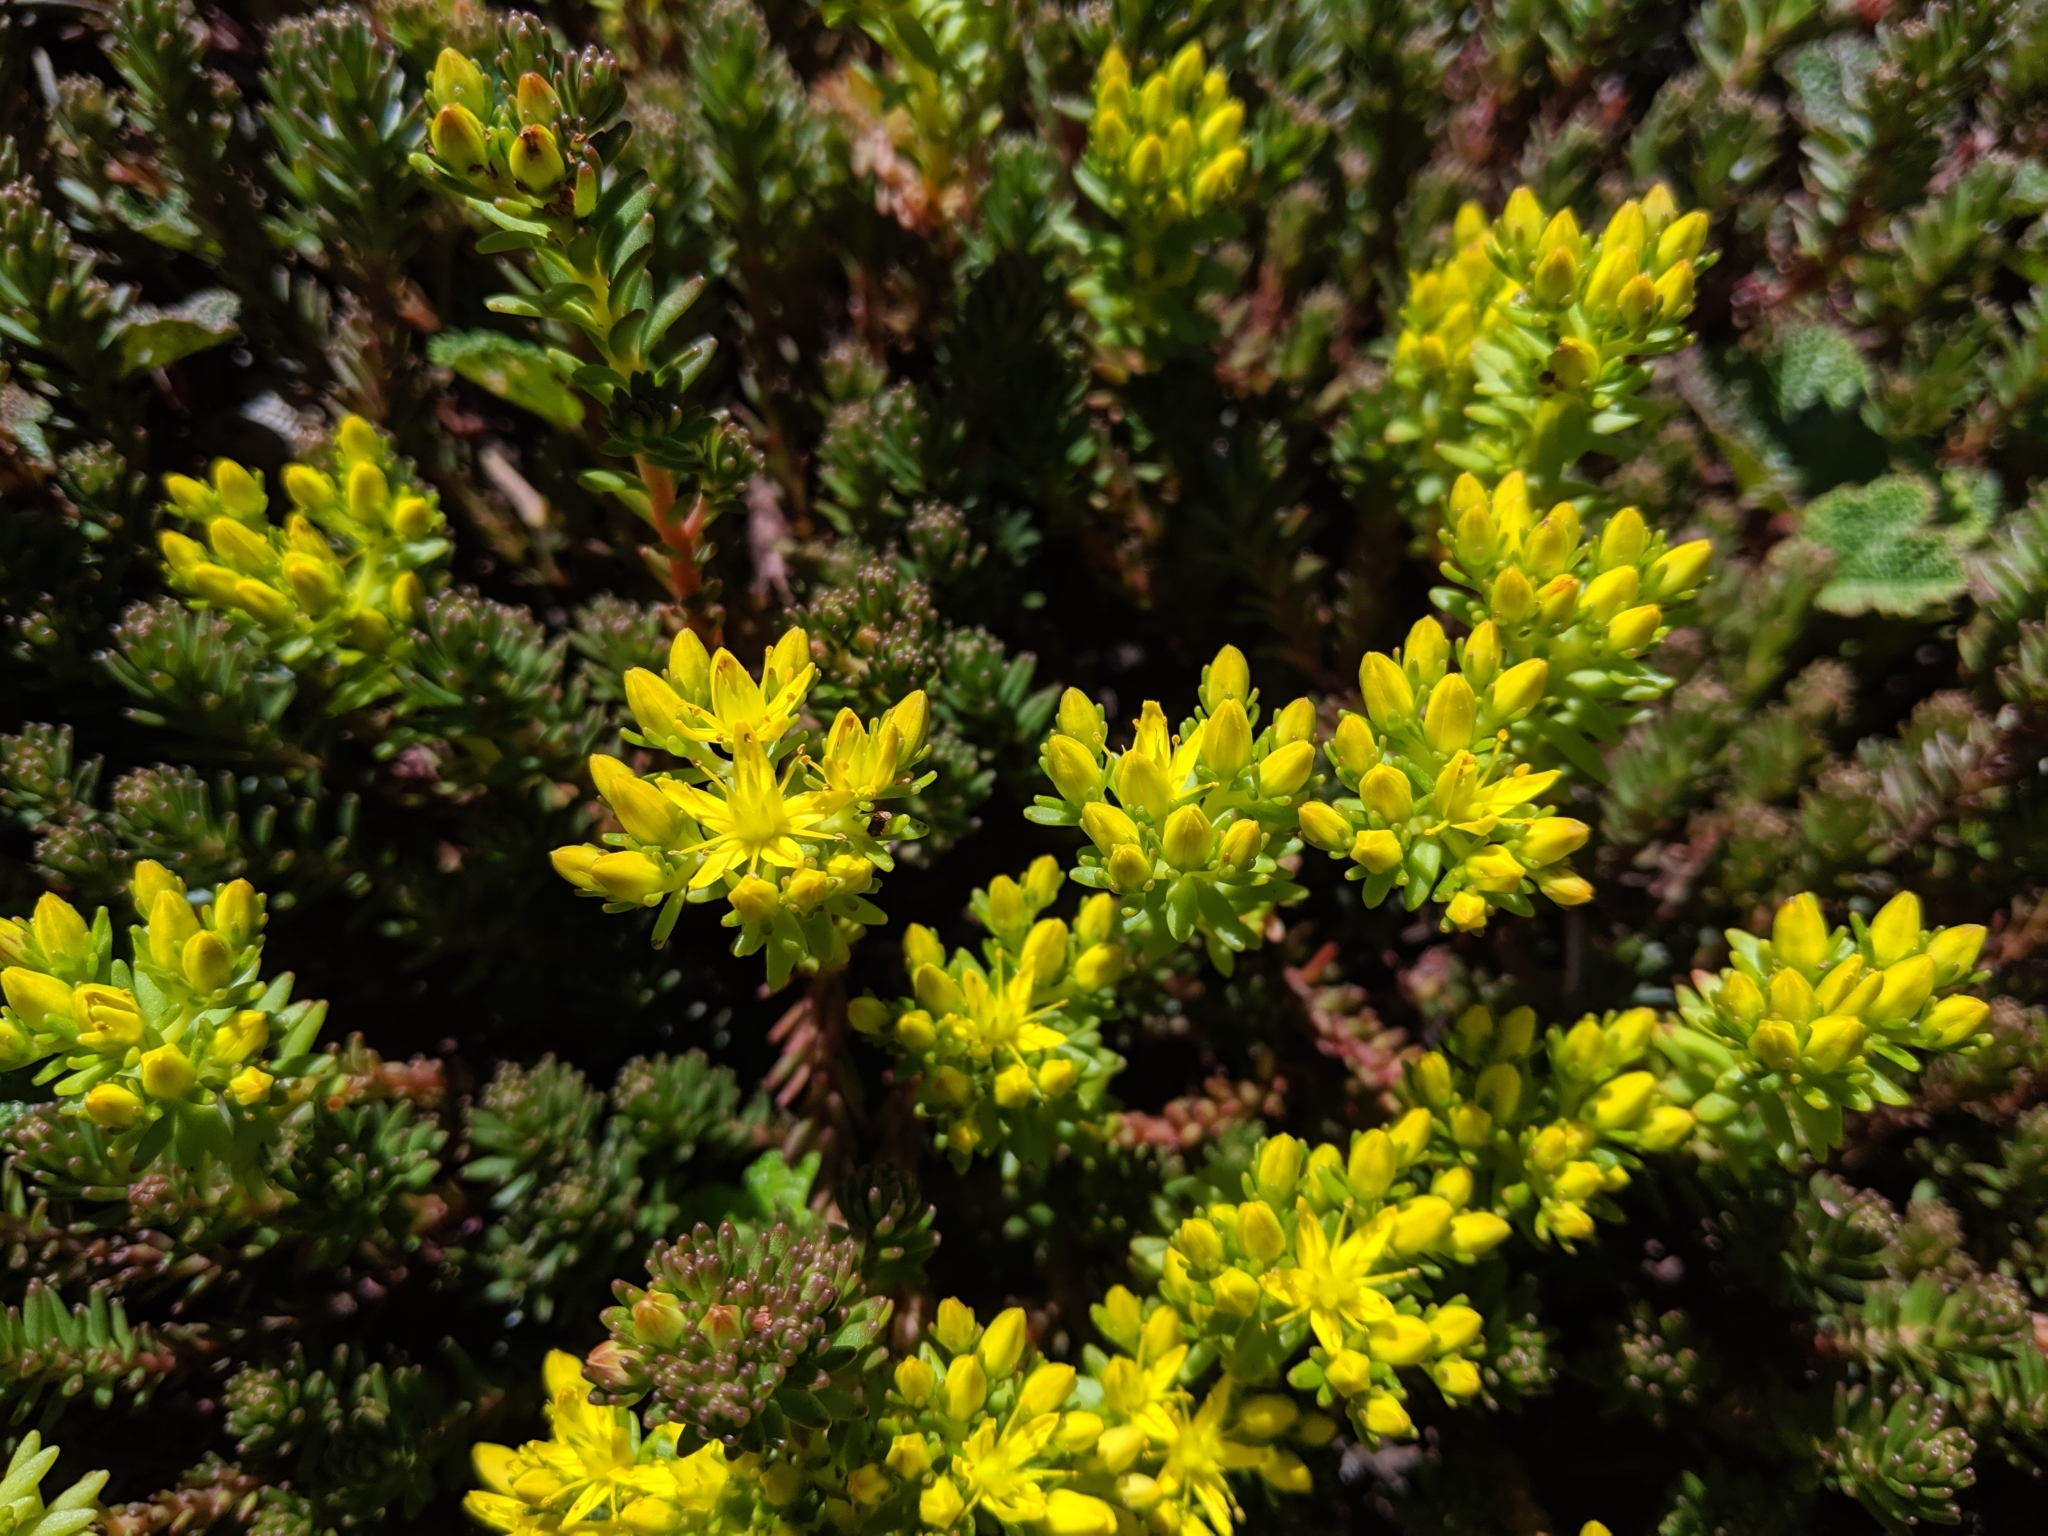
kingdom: Plantae
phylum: Tracheophyta
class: Magnoliopsida
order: Saxifragales
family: Crassulaceae
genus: Sedum
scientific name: Sedum morrisonense
